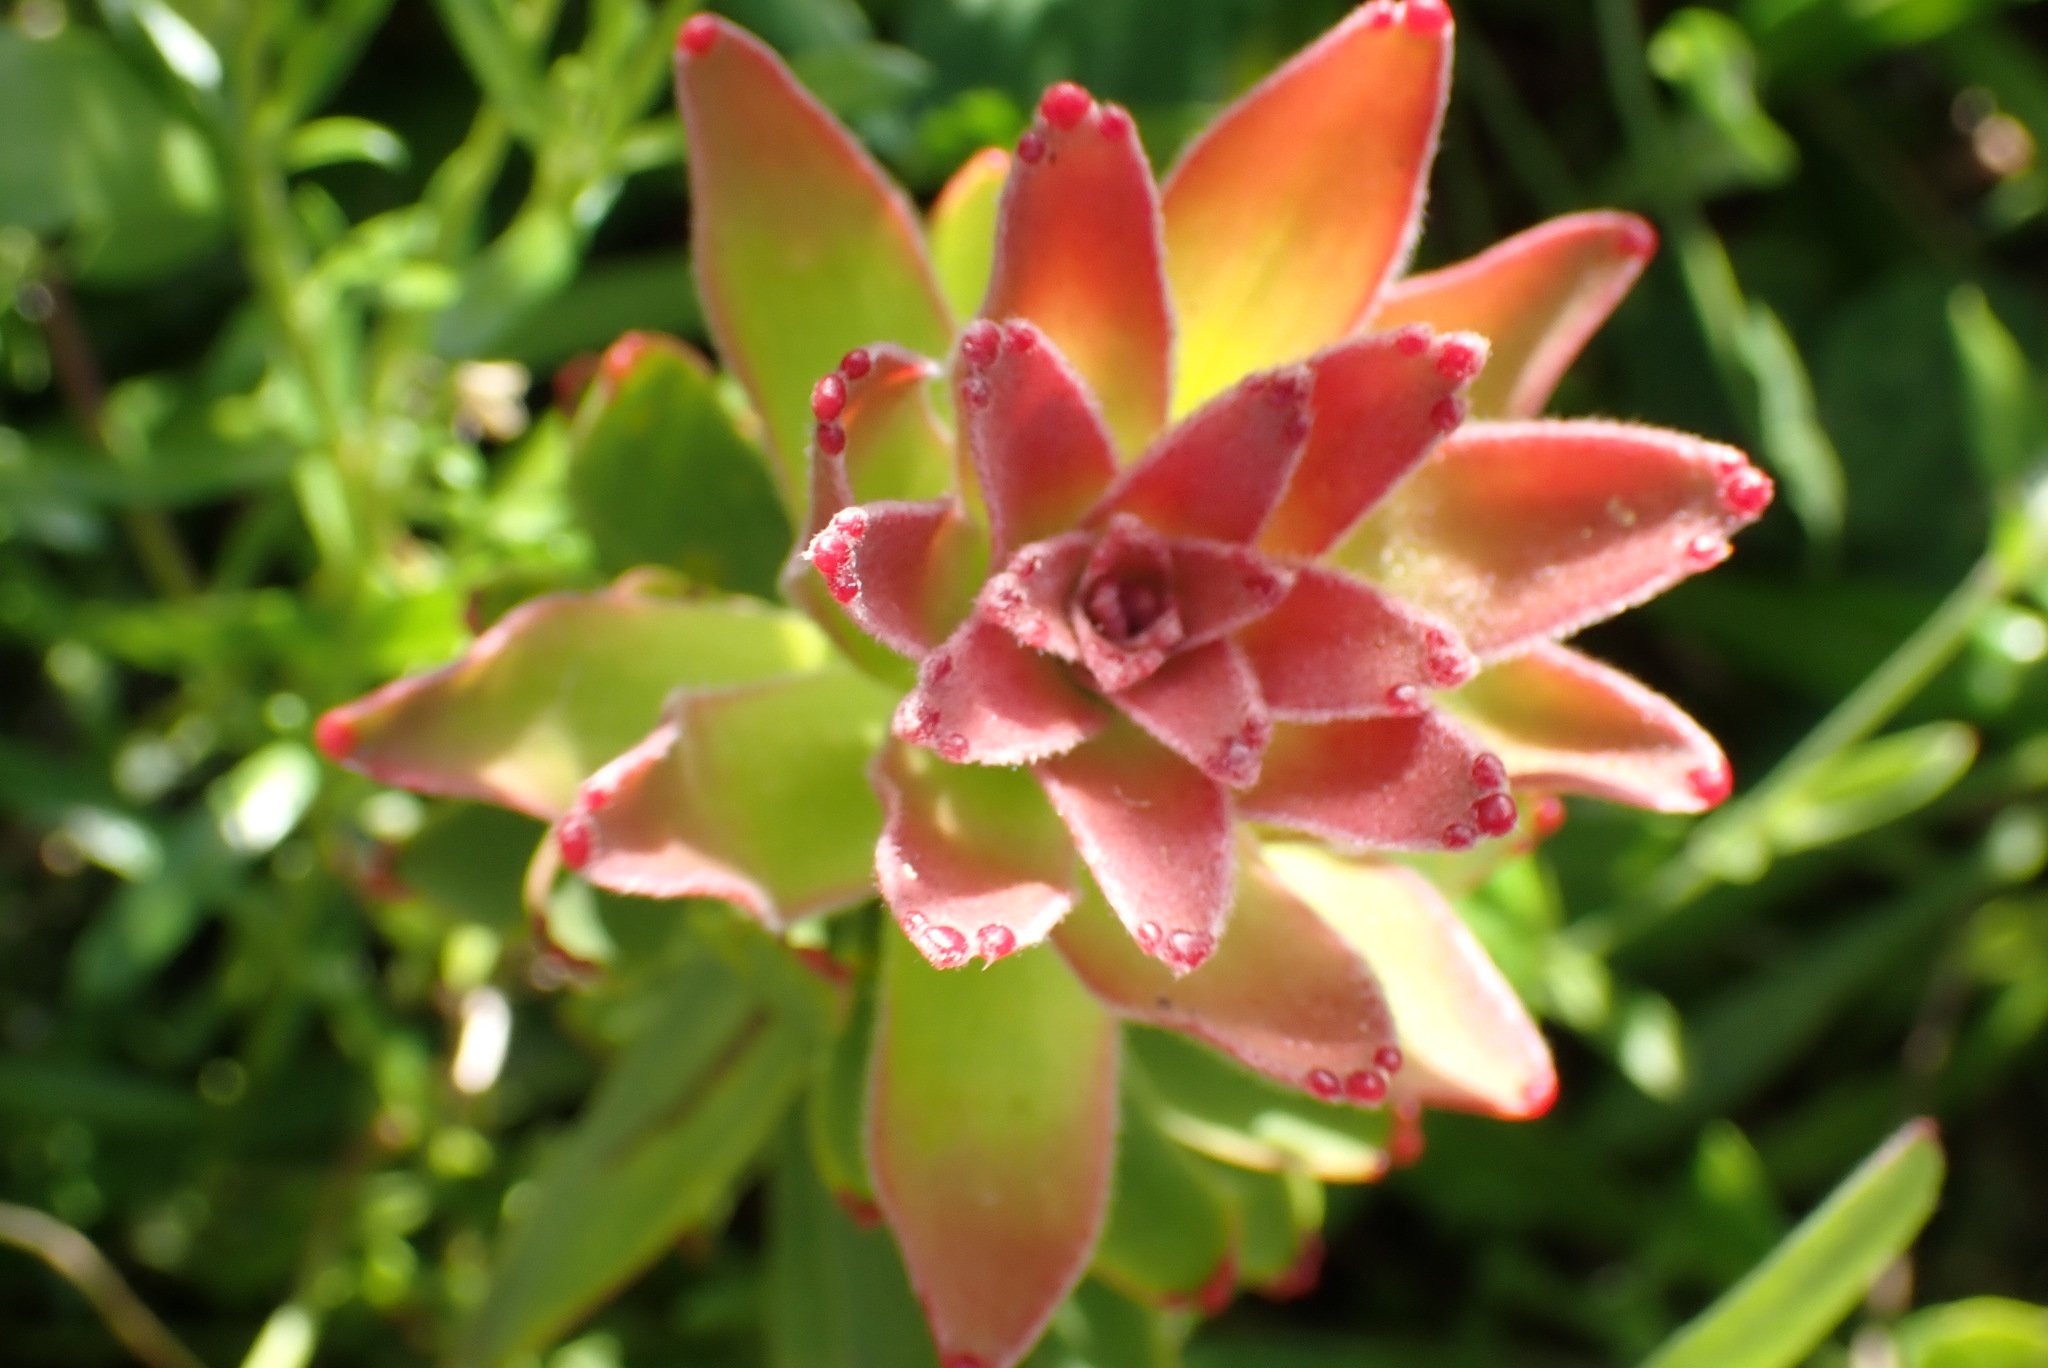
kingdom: Plantae
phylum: Tracheophyta
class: Magnoliopsida
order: Proteales
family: Proteaceae
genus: Mimetes
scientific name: Mimetes cucullatus
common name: Common pagoda
